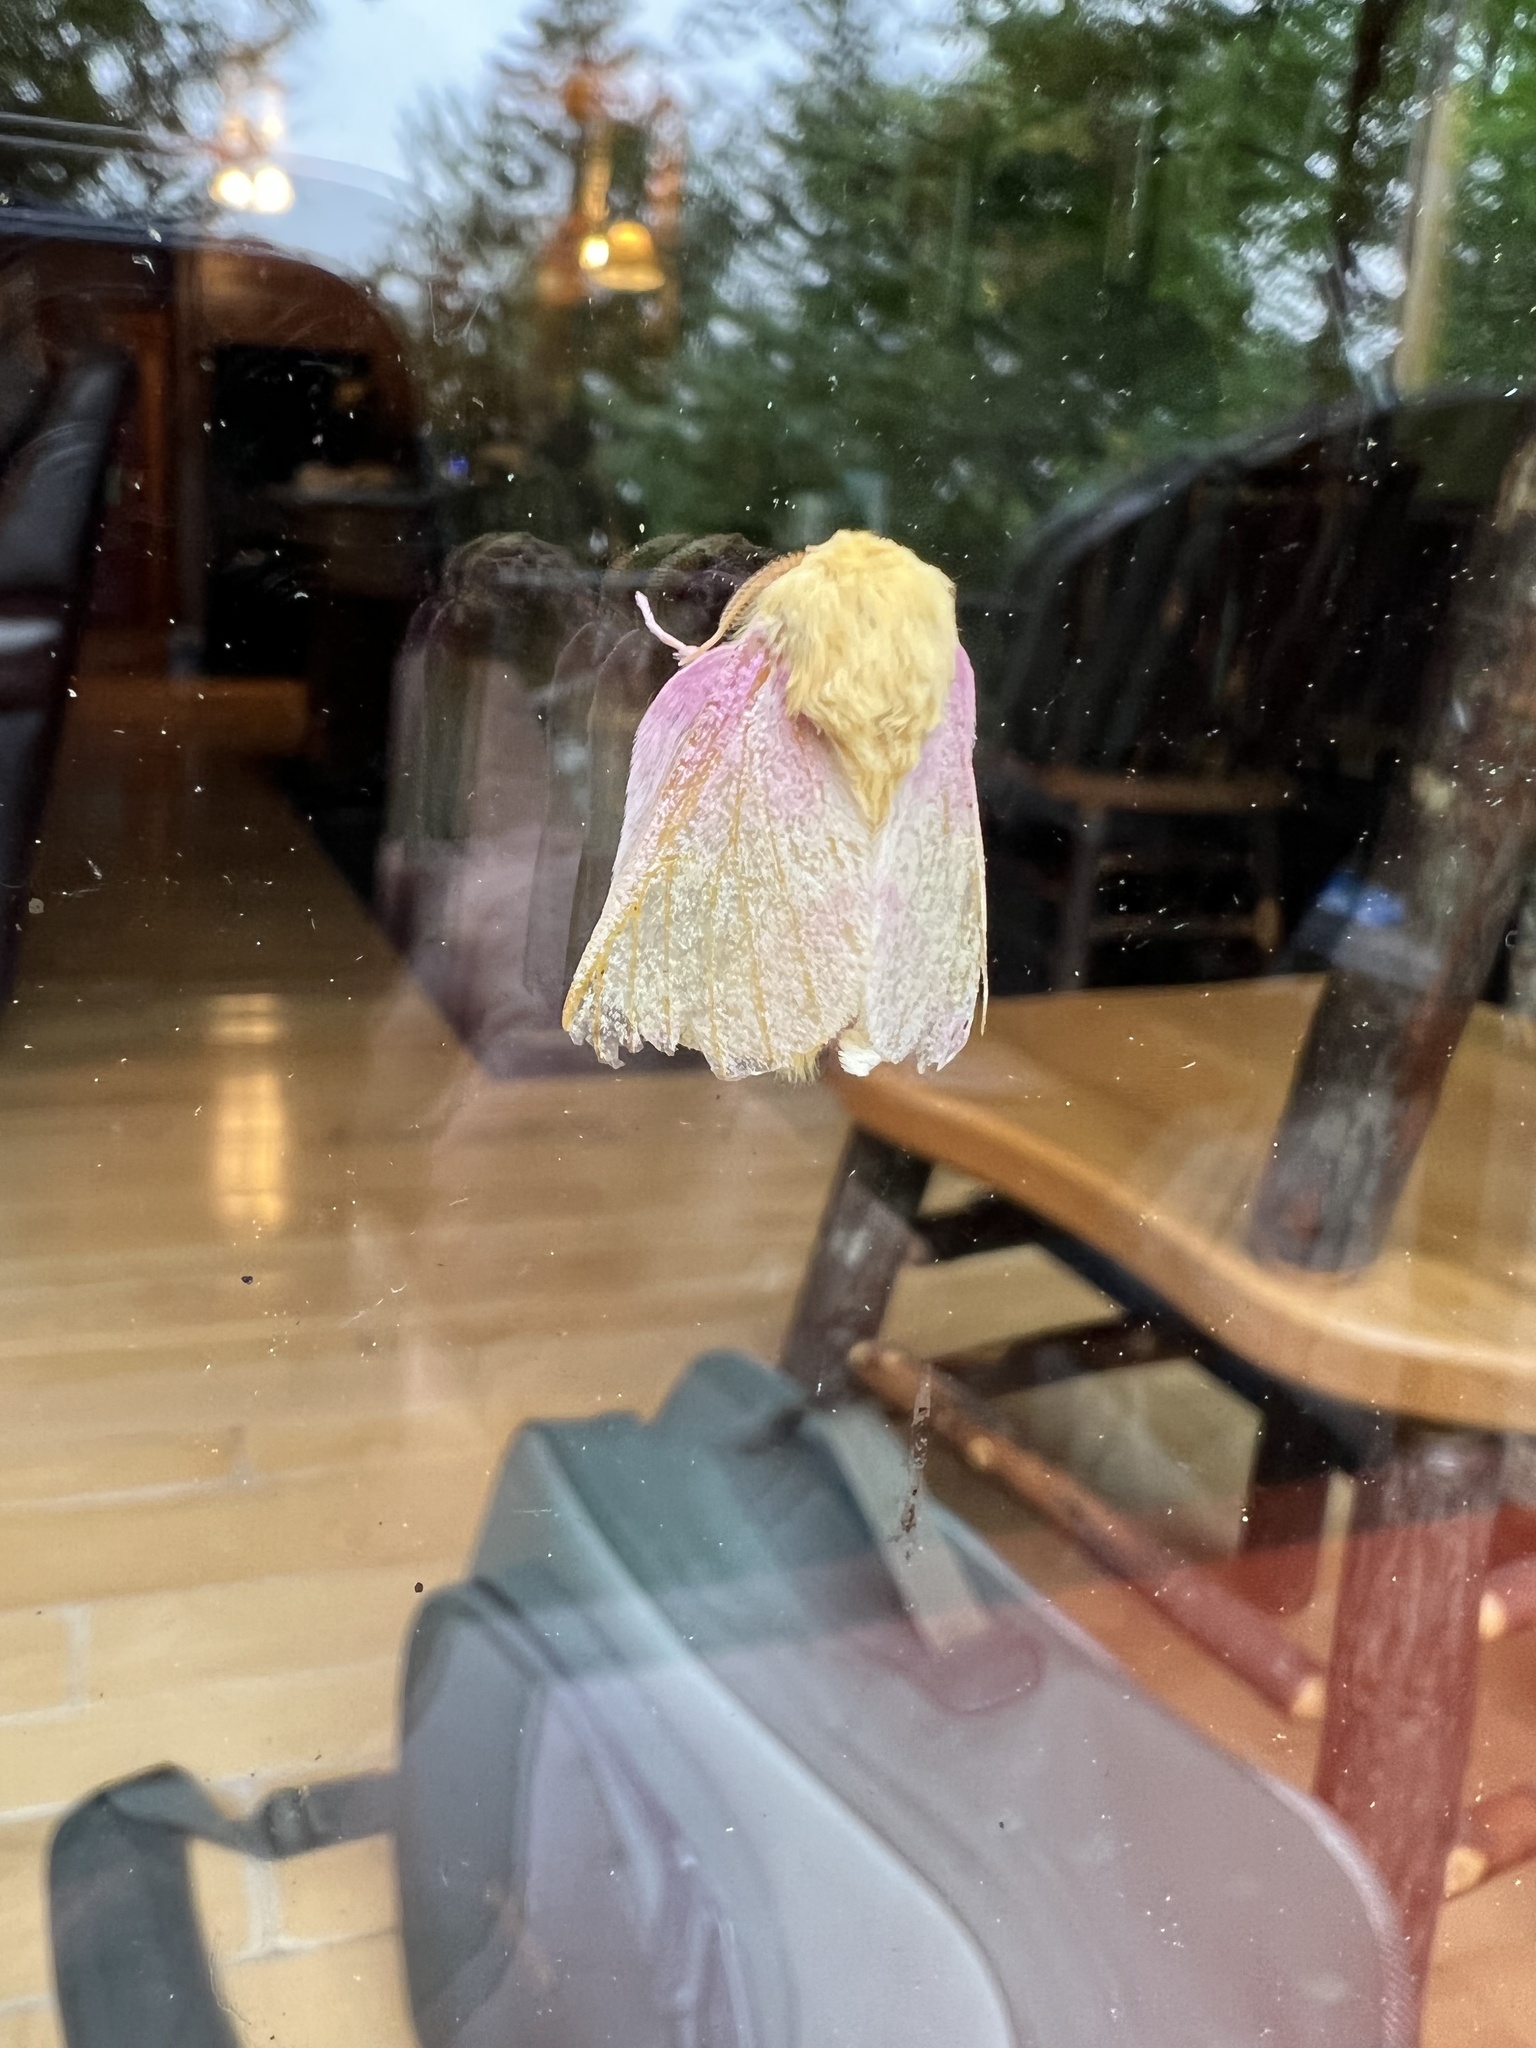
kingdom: Animalia
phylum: Arthropoda
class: Insecta
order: Lepidoptera
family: Saturniidae
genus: Dryocampa
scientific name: Dryocampa rubicunda
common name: Rosy maple moth
